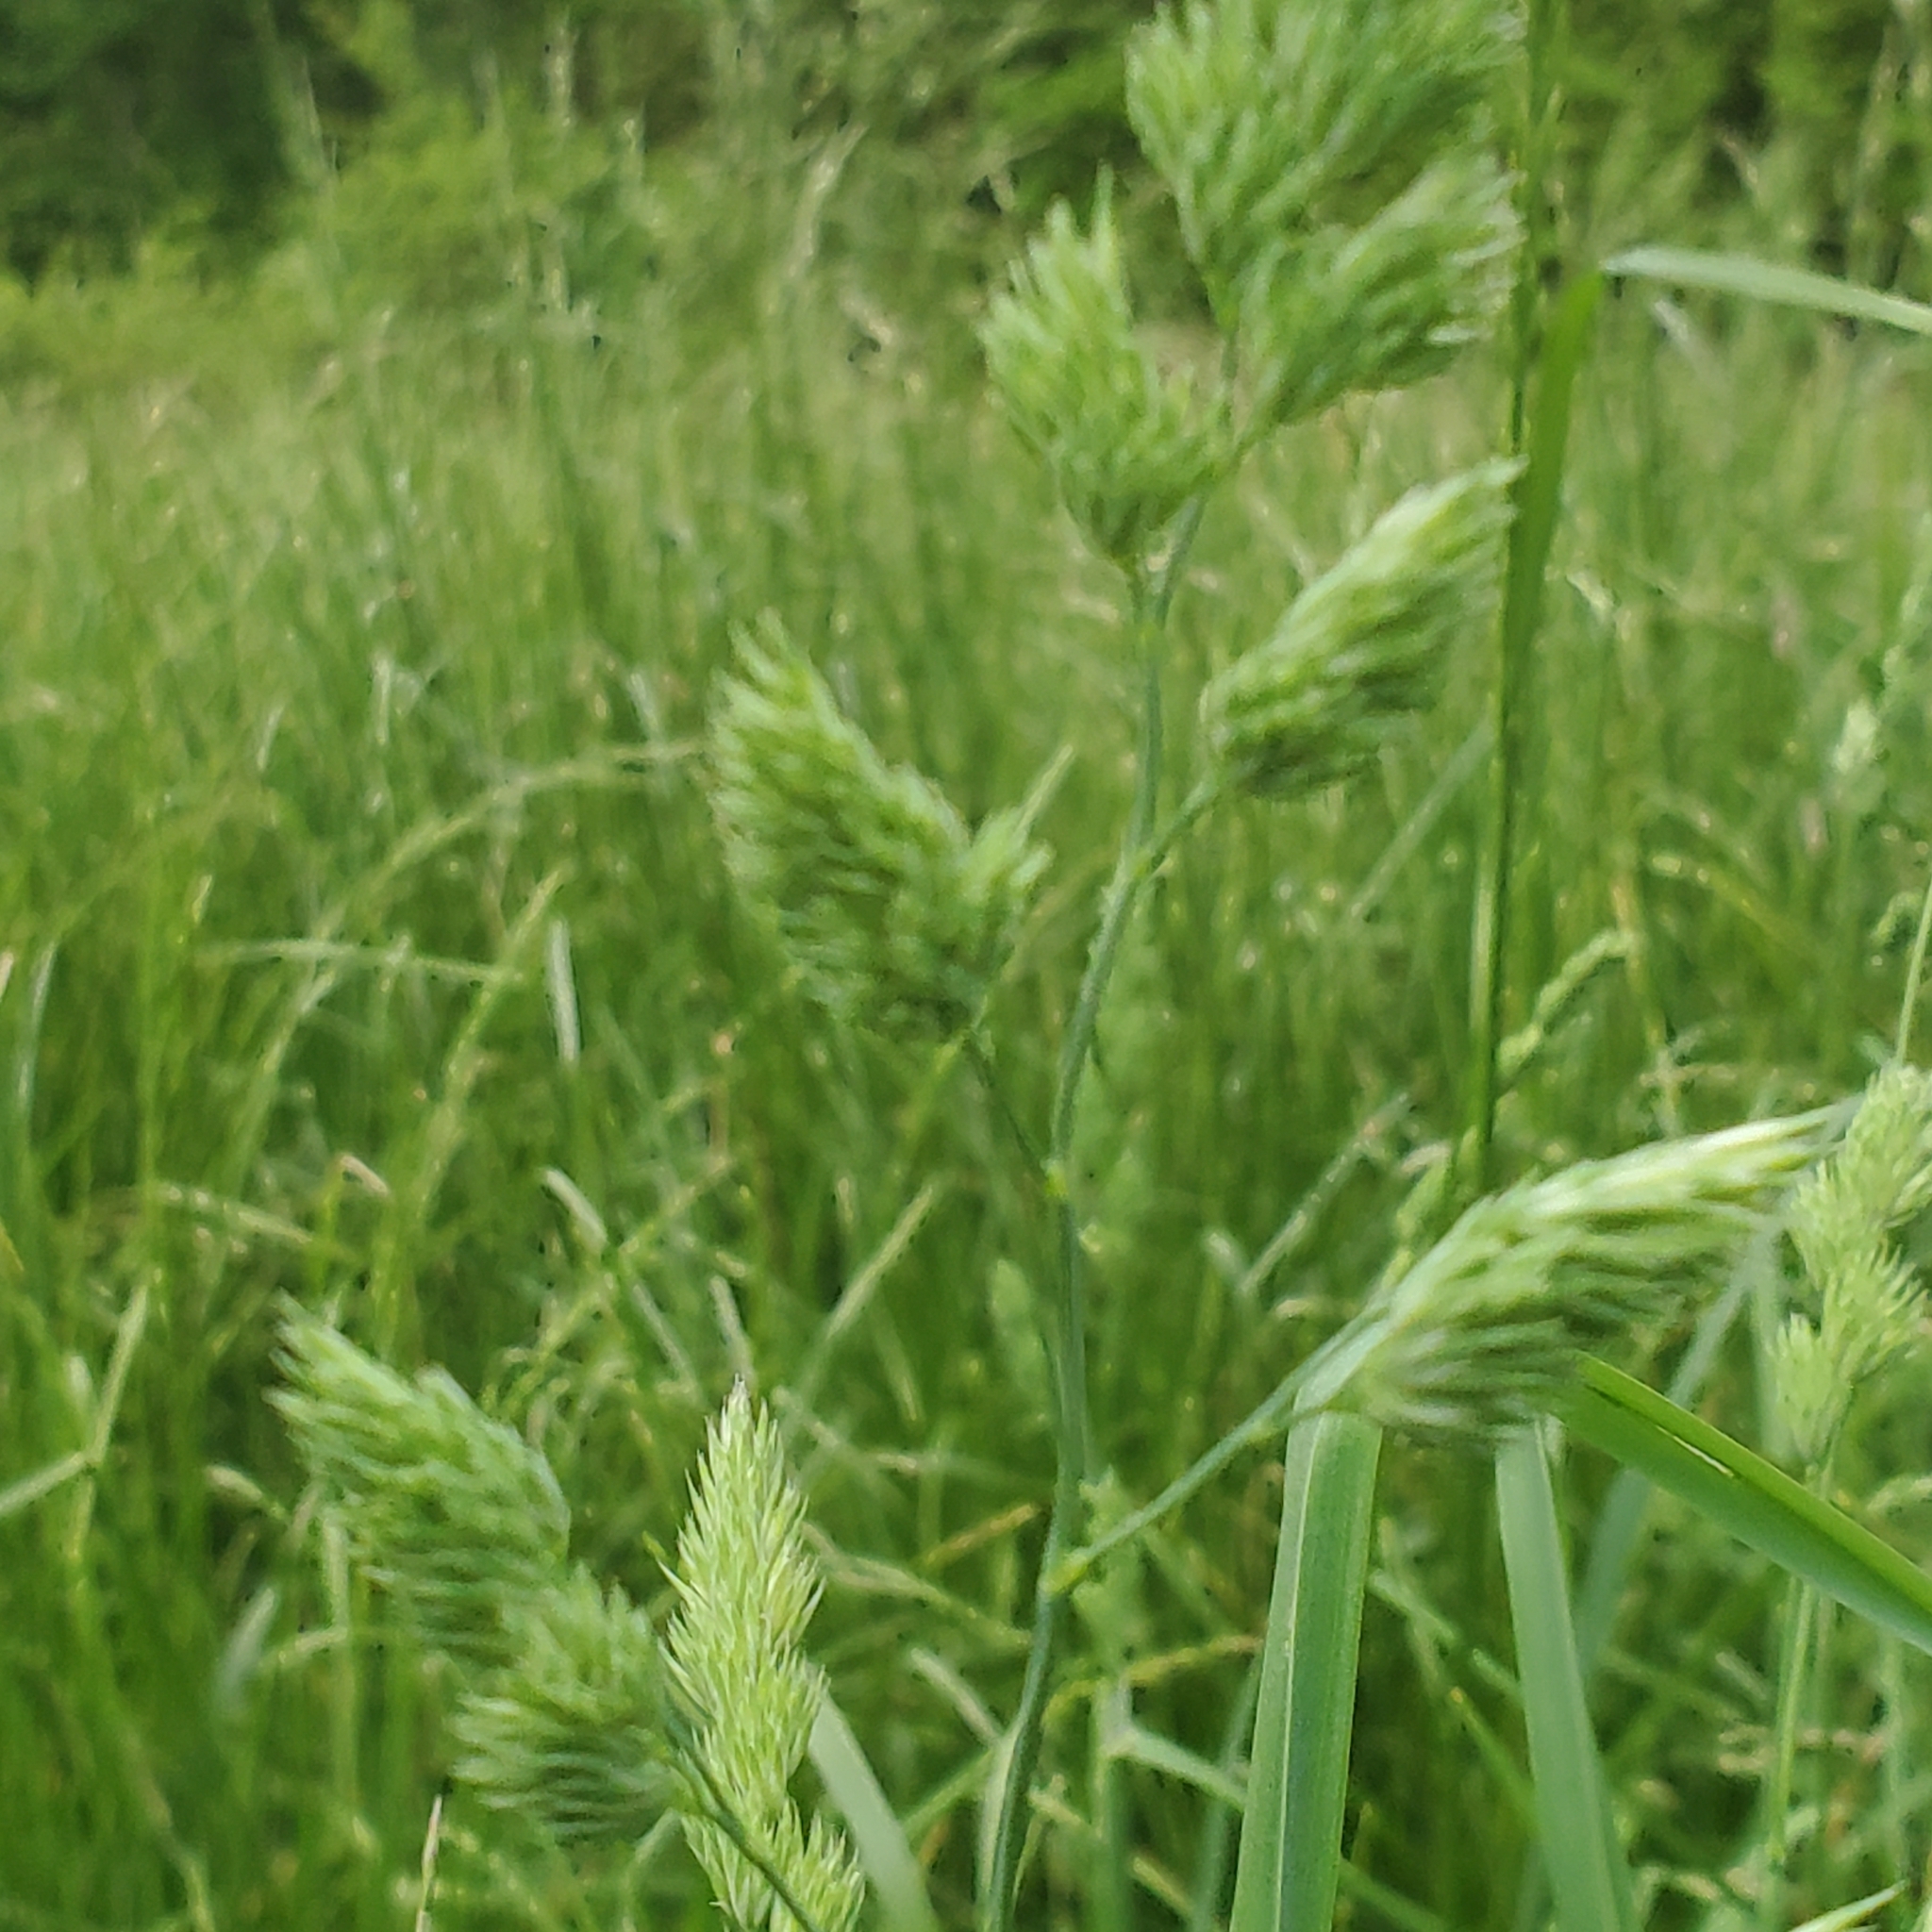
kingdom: Plantae
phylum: Tracheophyta
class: Liliopsida
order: Poales
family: Poaceae
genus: Dactylis
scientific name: Dactylis glomerata
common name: Orchardgrass
